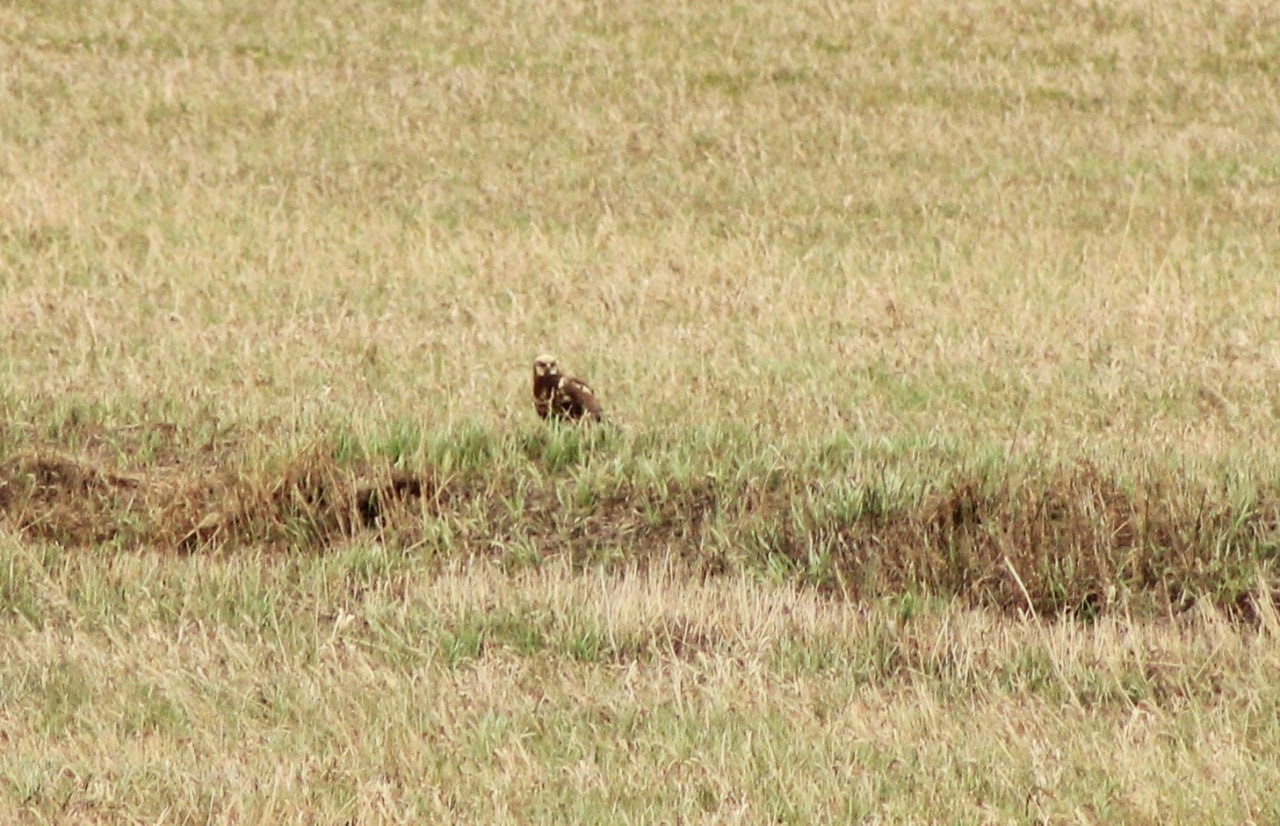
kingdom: Animalia
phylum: Chordata
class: Aves
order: Accipitriformes
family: Accipitridae
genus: Circus
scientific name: Circus aeruginosus
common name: Western marsh harrier
